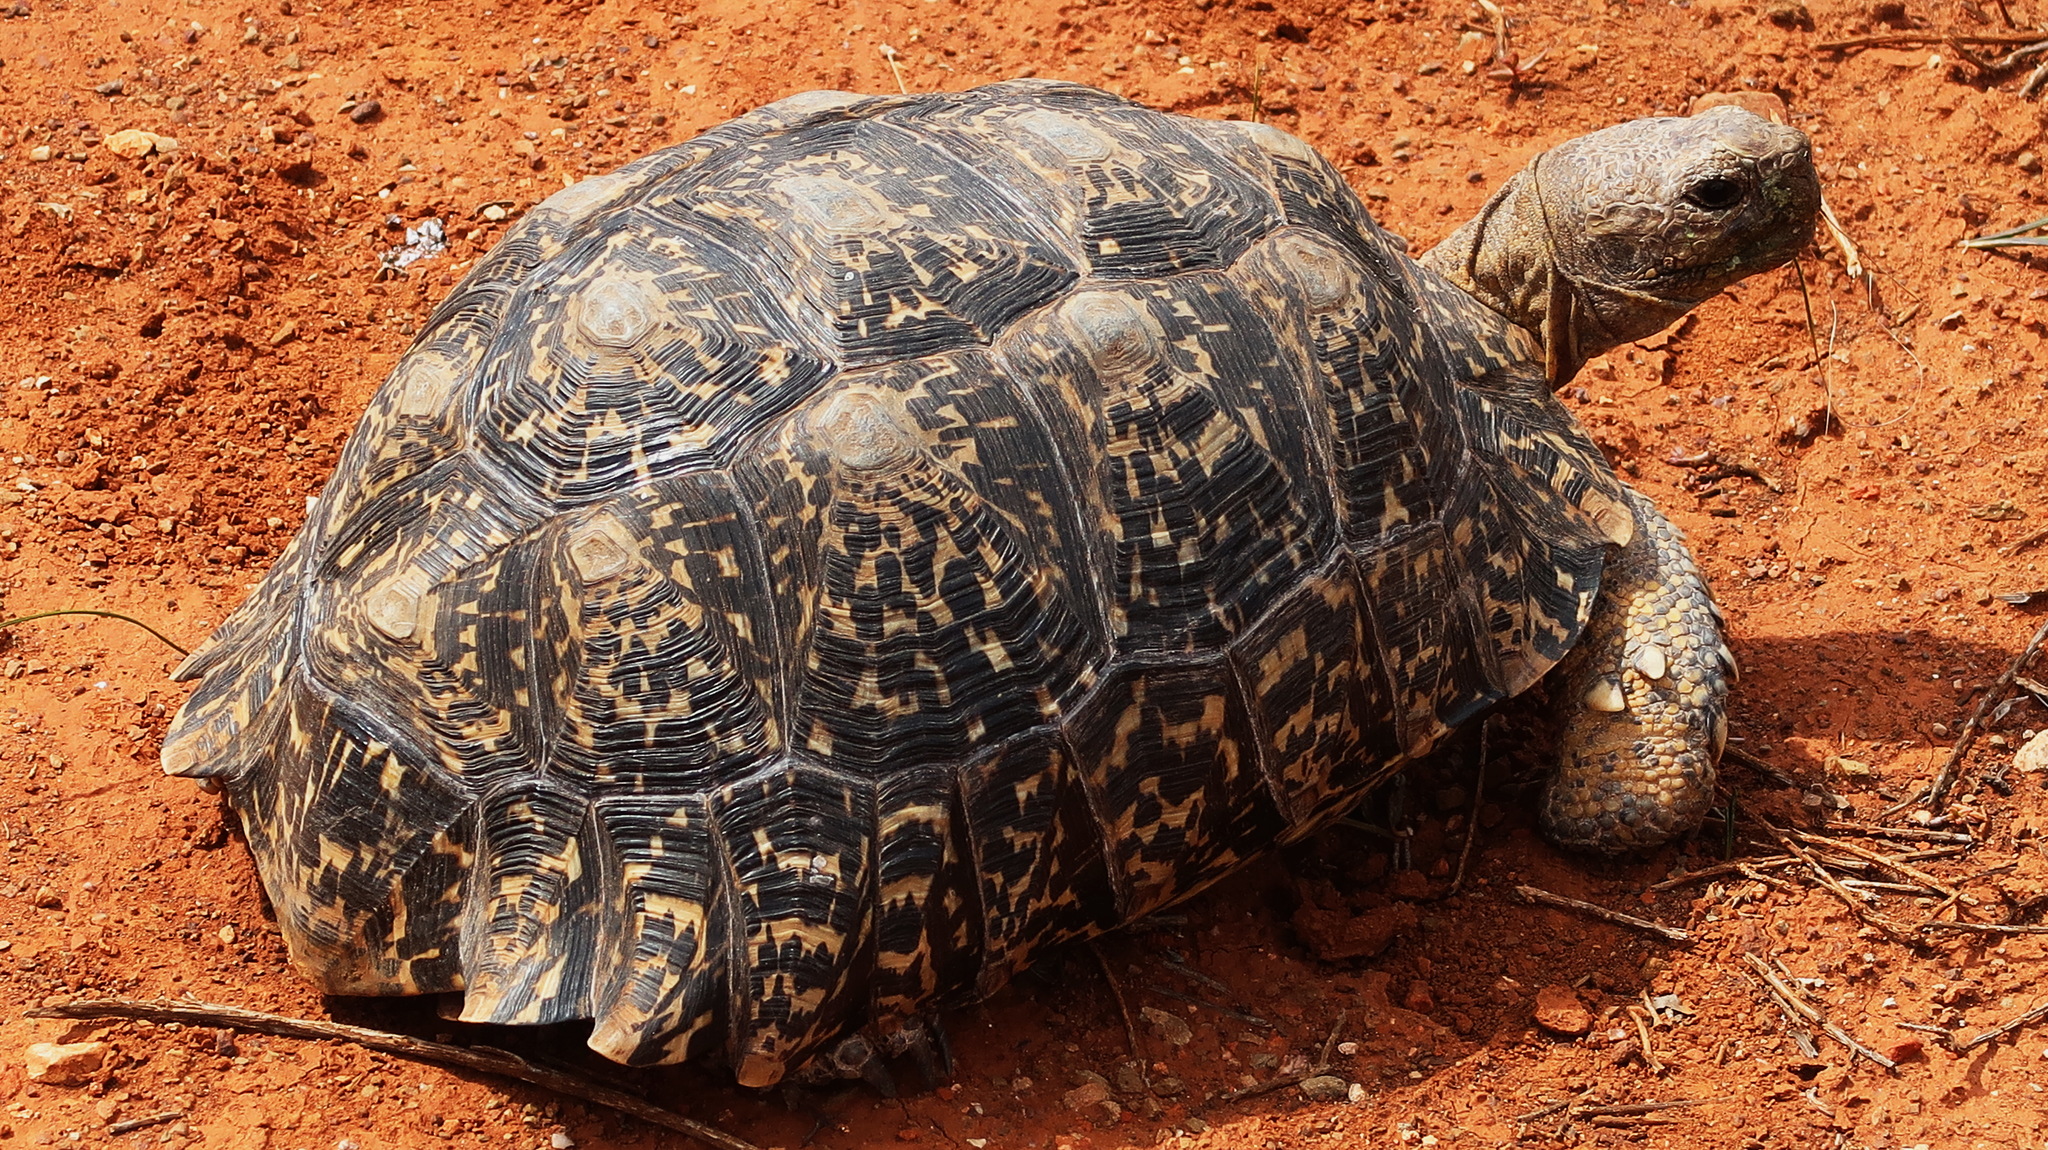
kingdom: Animalia
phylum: Chordata
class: Testudines
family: Testudinidae
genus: Stigmochelys
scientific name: Stigmochelys pardalis
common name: Leopard tortoise
